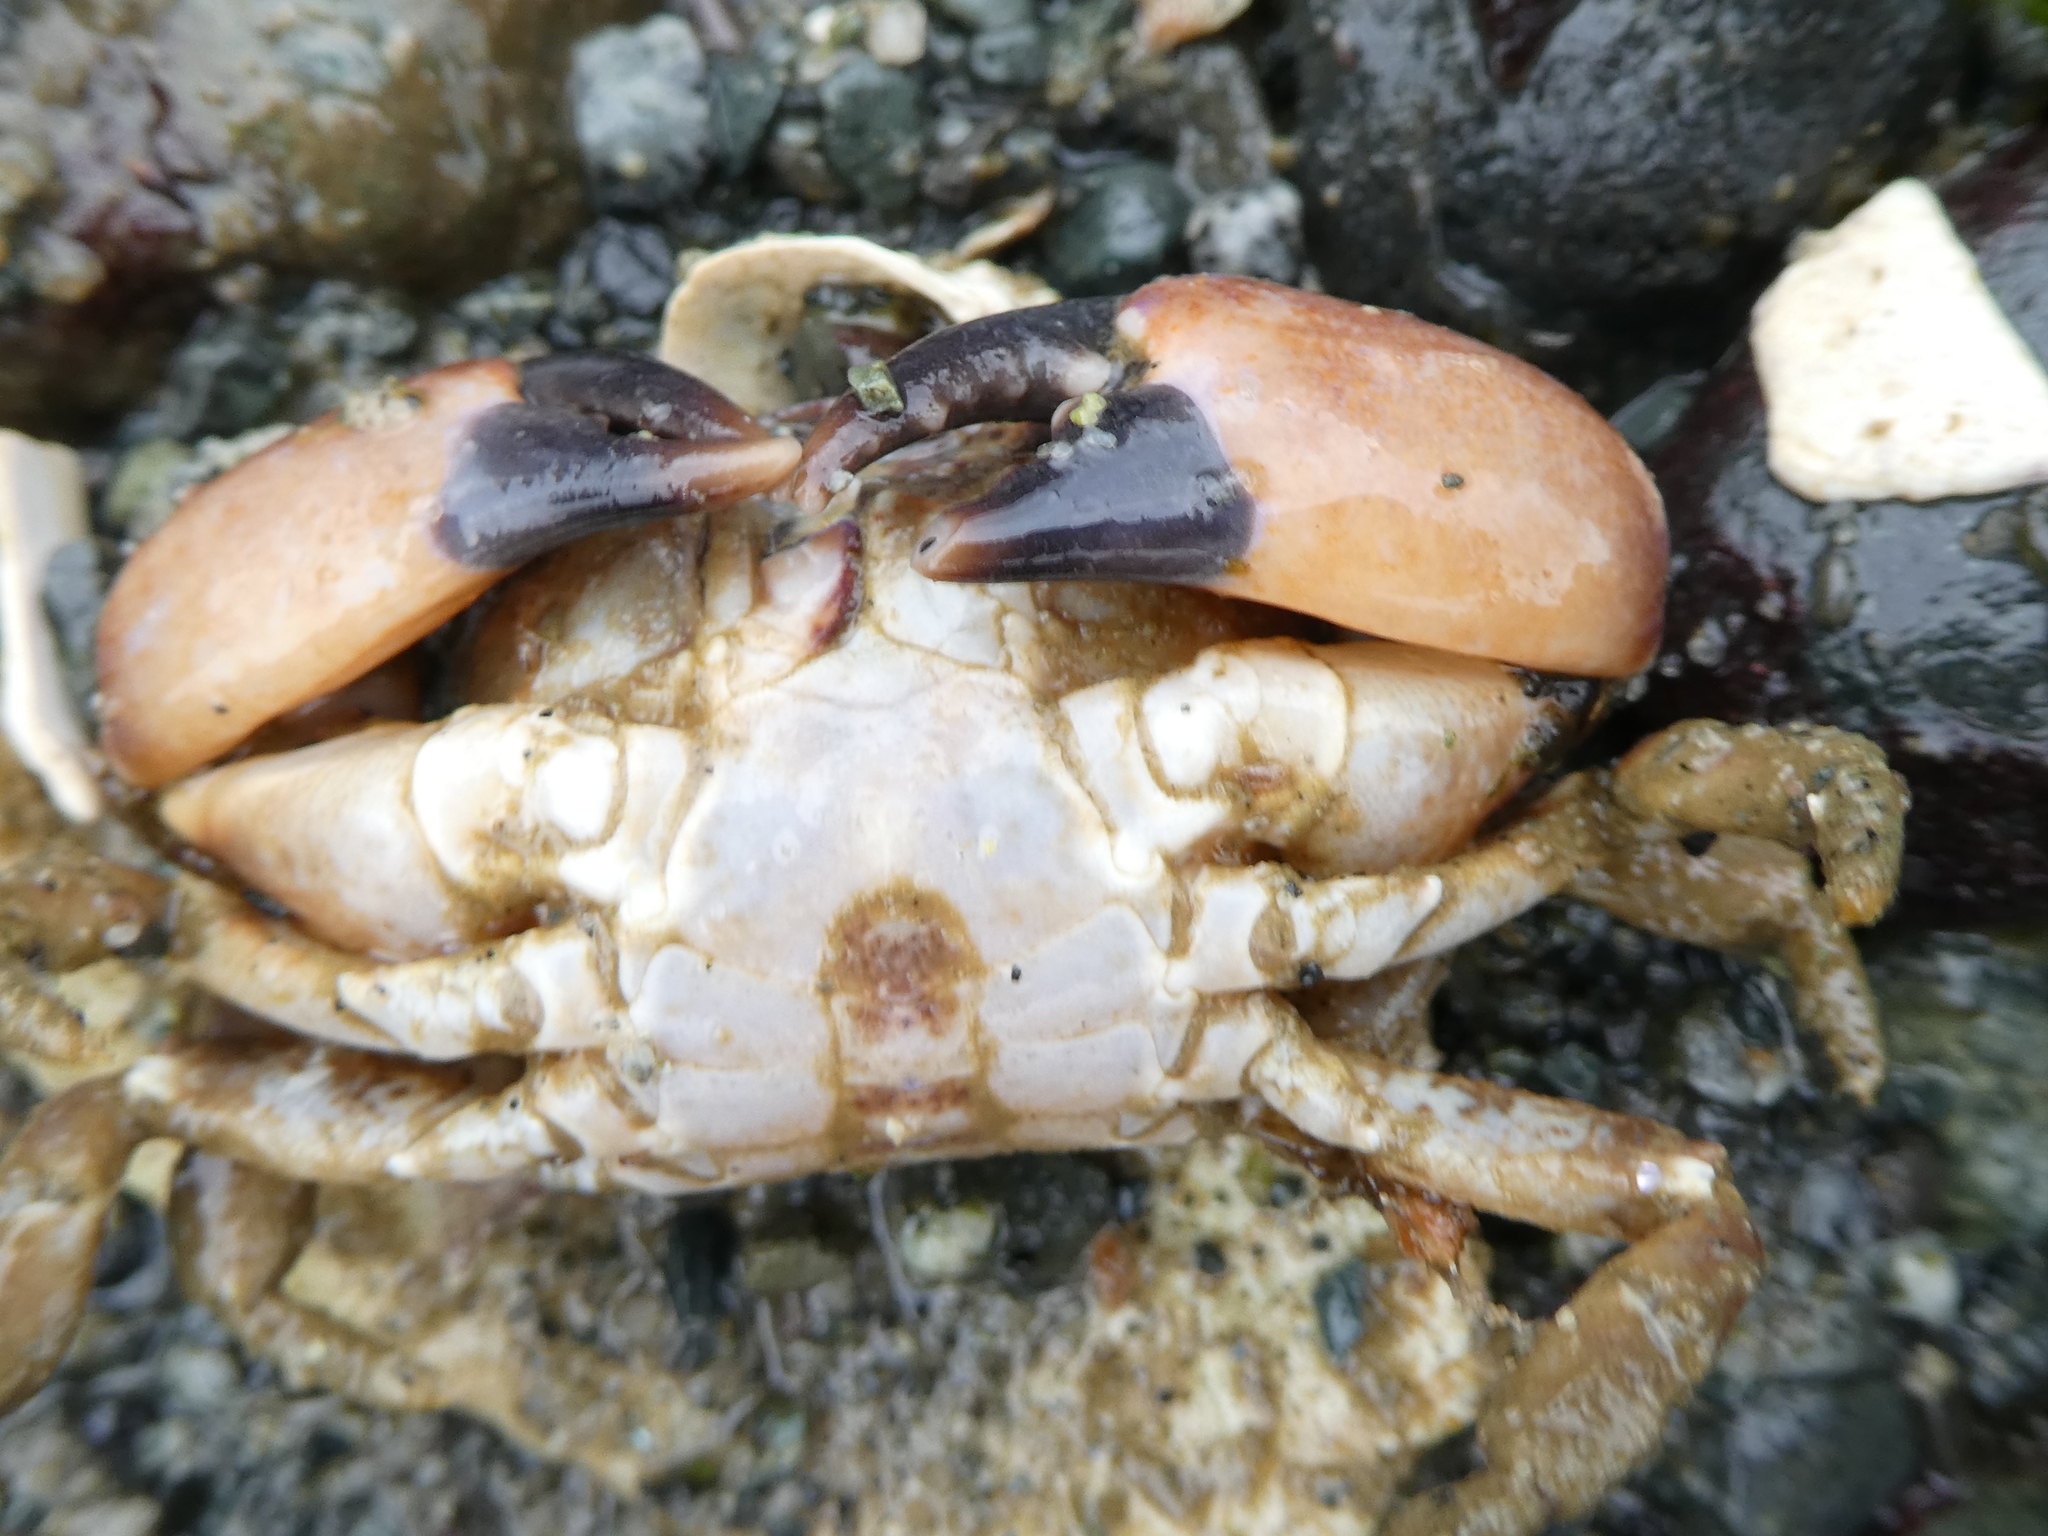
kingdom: Animalia
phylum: Arthropoda
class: Malacostraca
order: Decapoda
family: Panopeidae
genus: Lophopanopeus
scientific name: Lophopanopeus bellus
